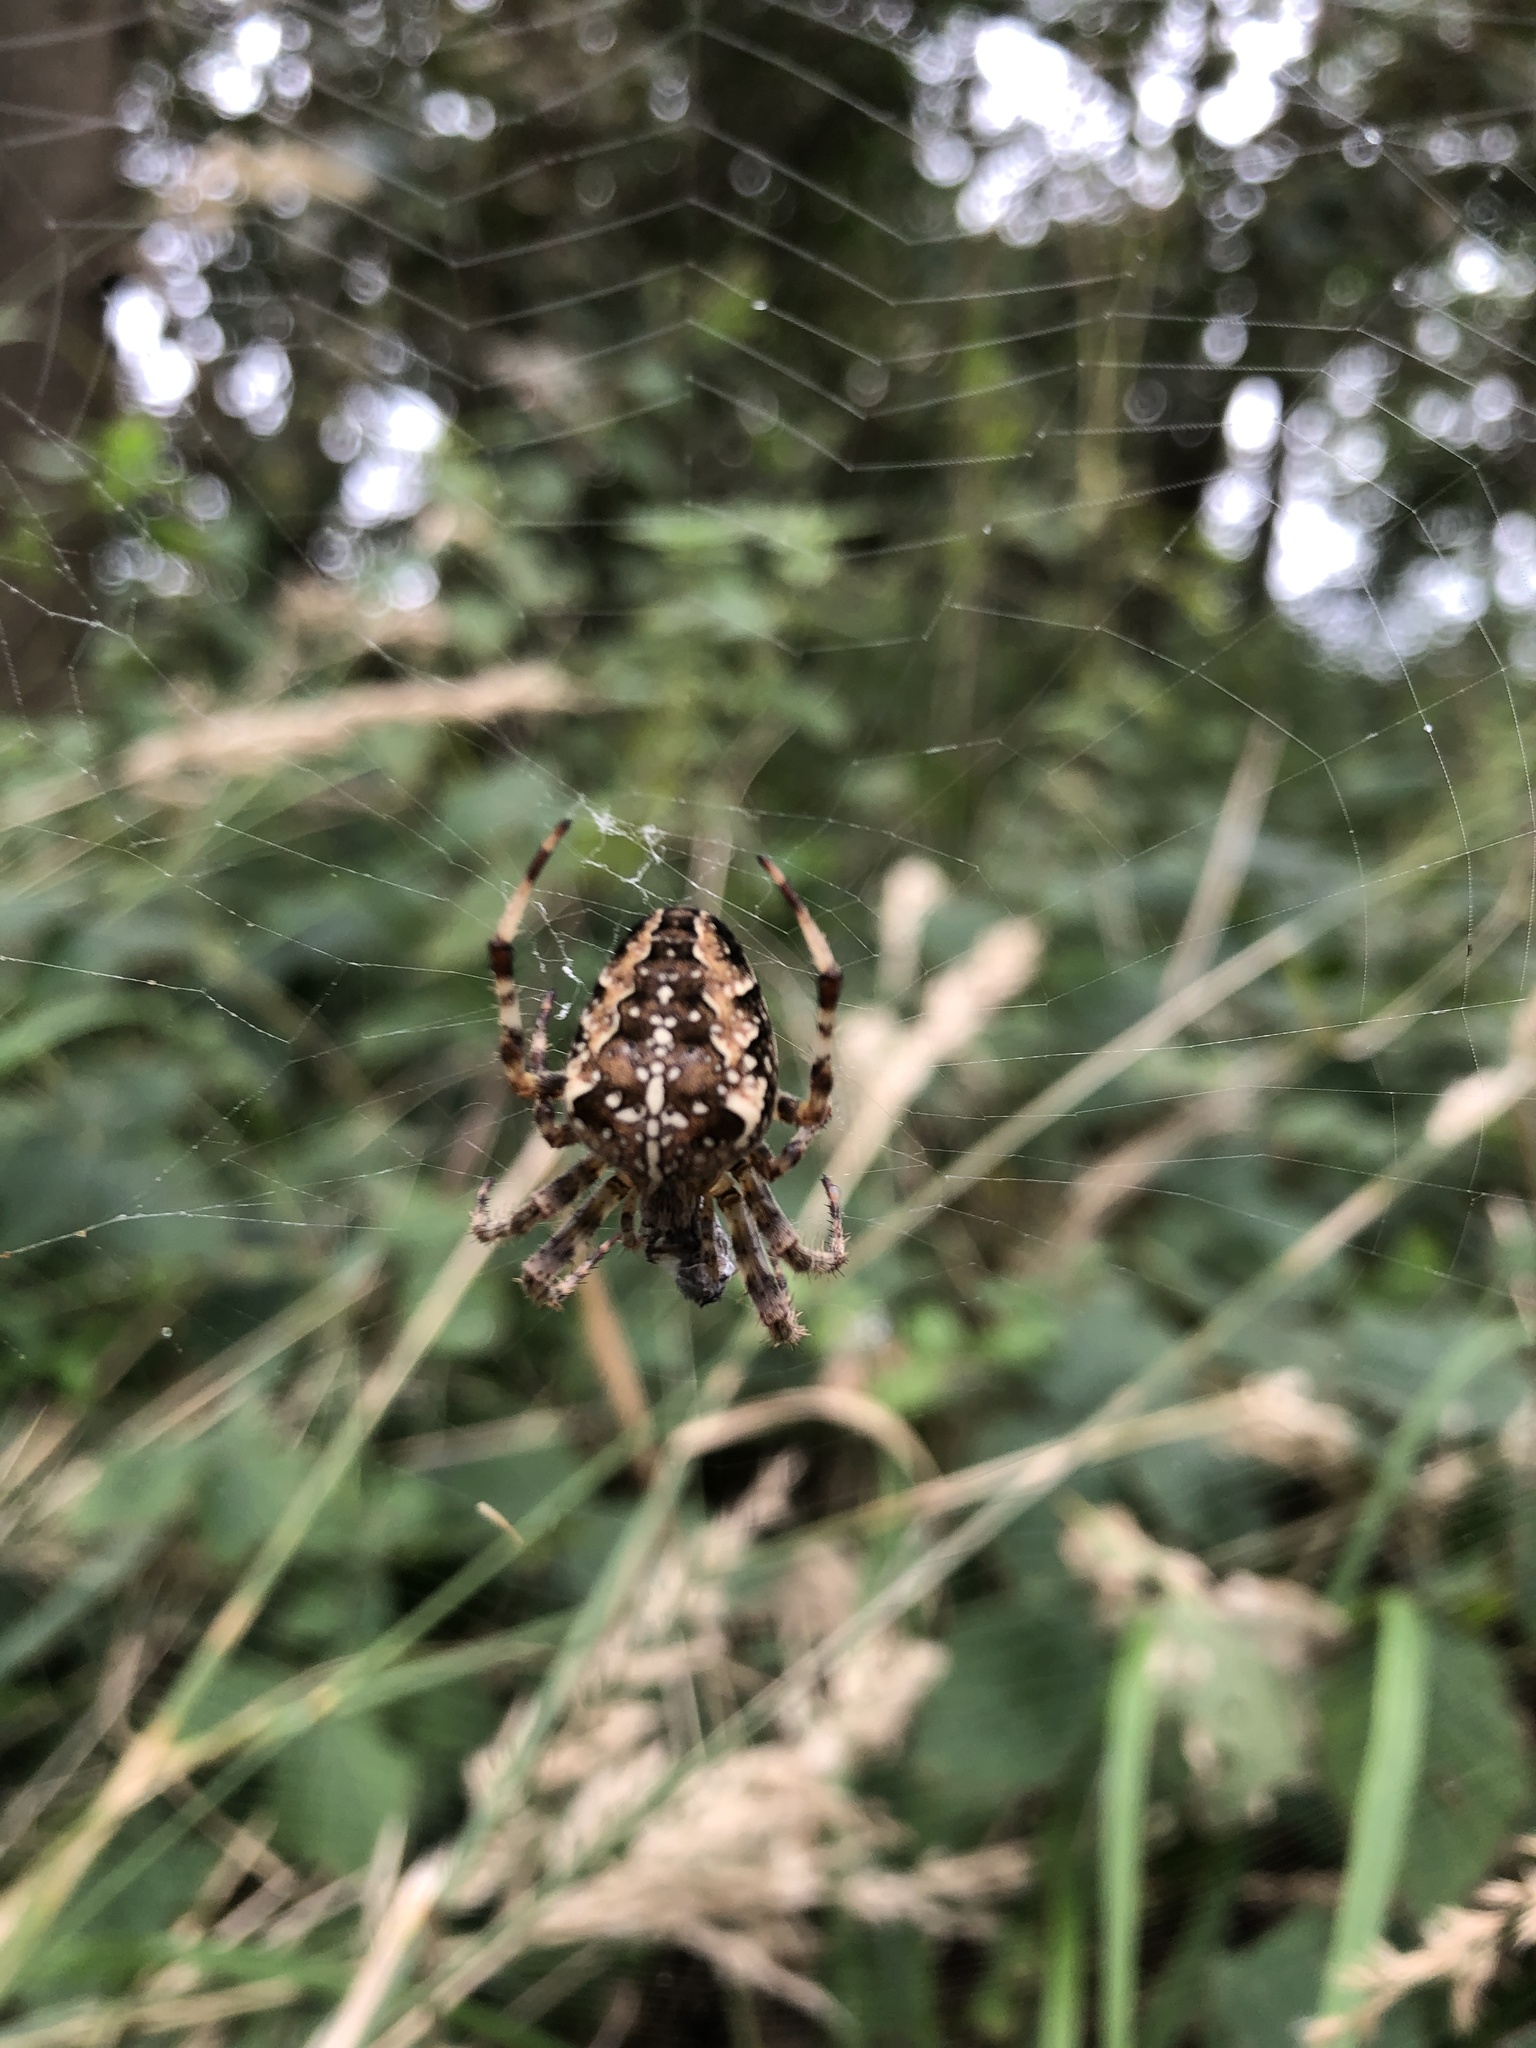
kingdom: Animalia
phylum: Arthropoda
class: Arachnida
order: Araneae
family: Araneidae
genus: Araneus
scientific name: Araneus diadematus
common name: Cross orbweaver
